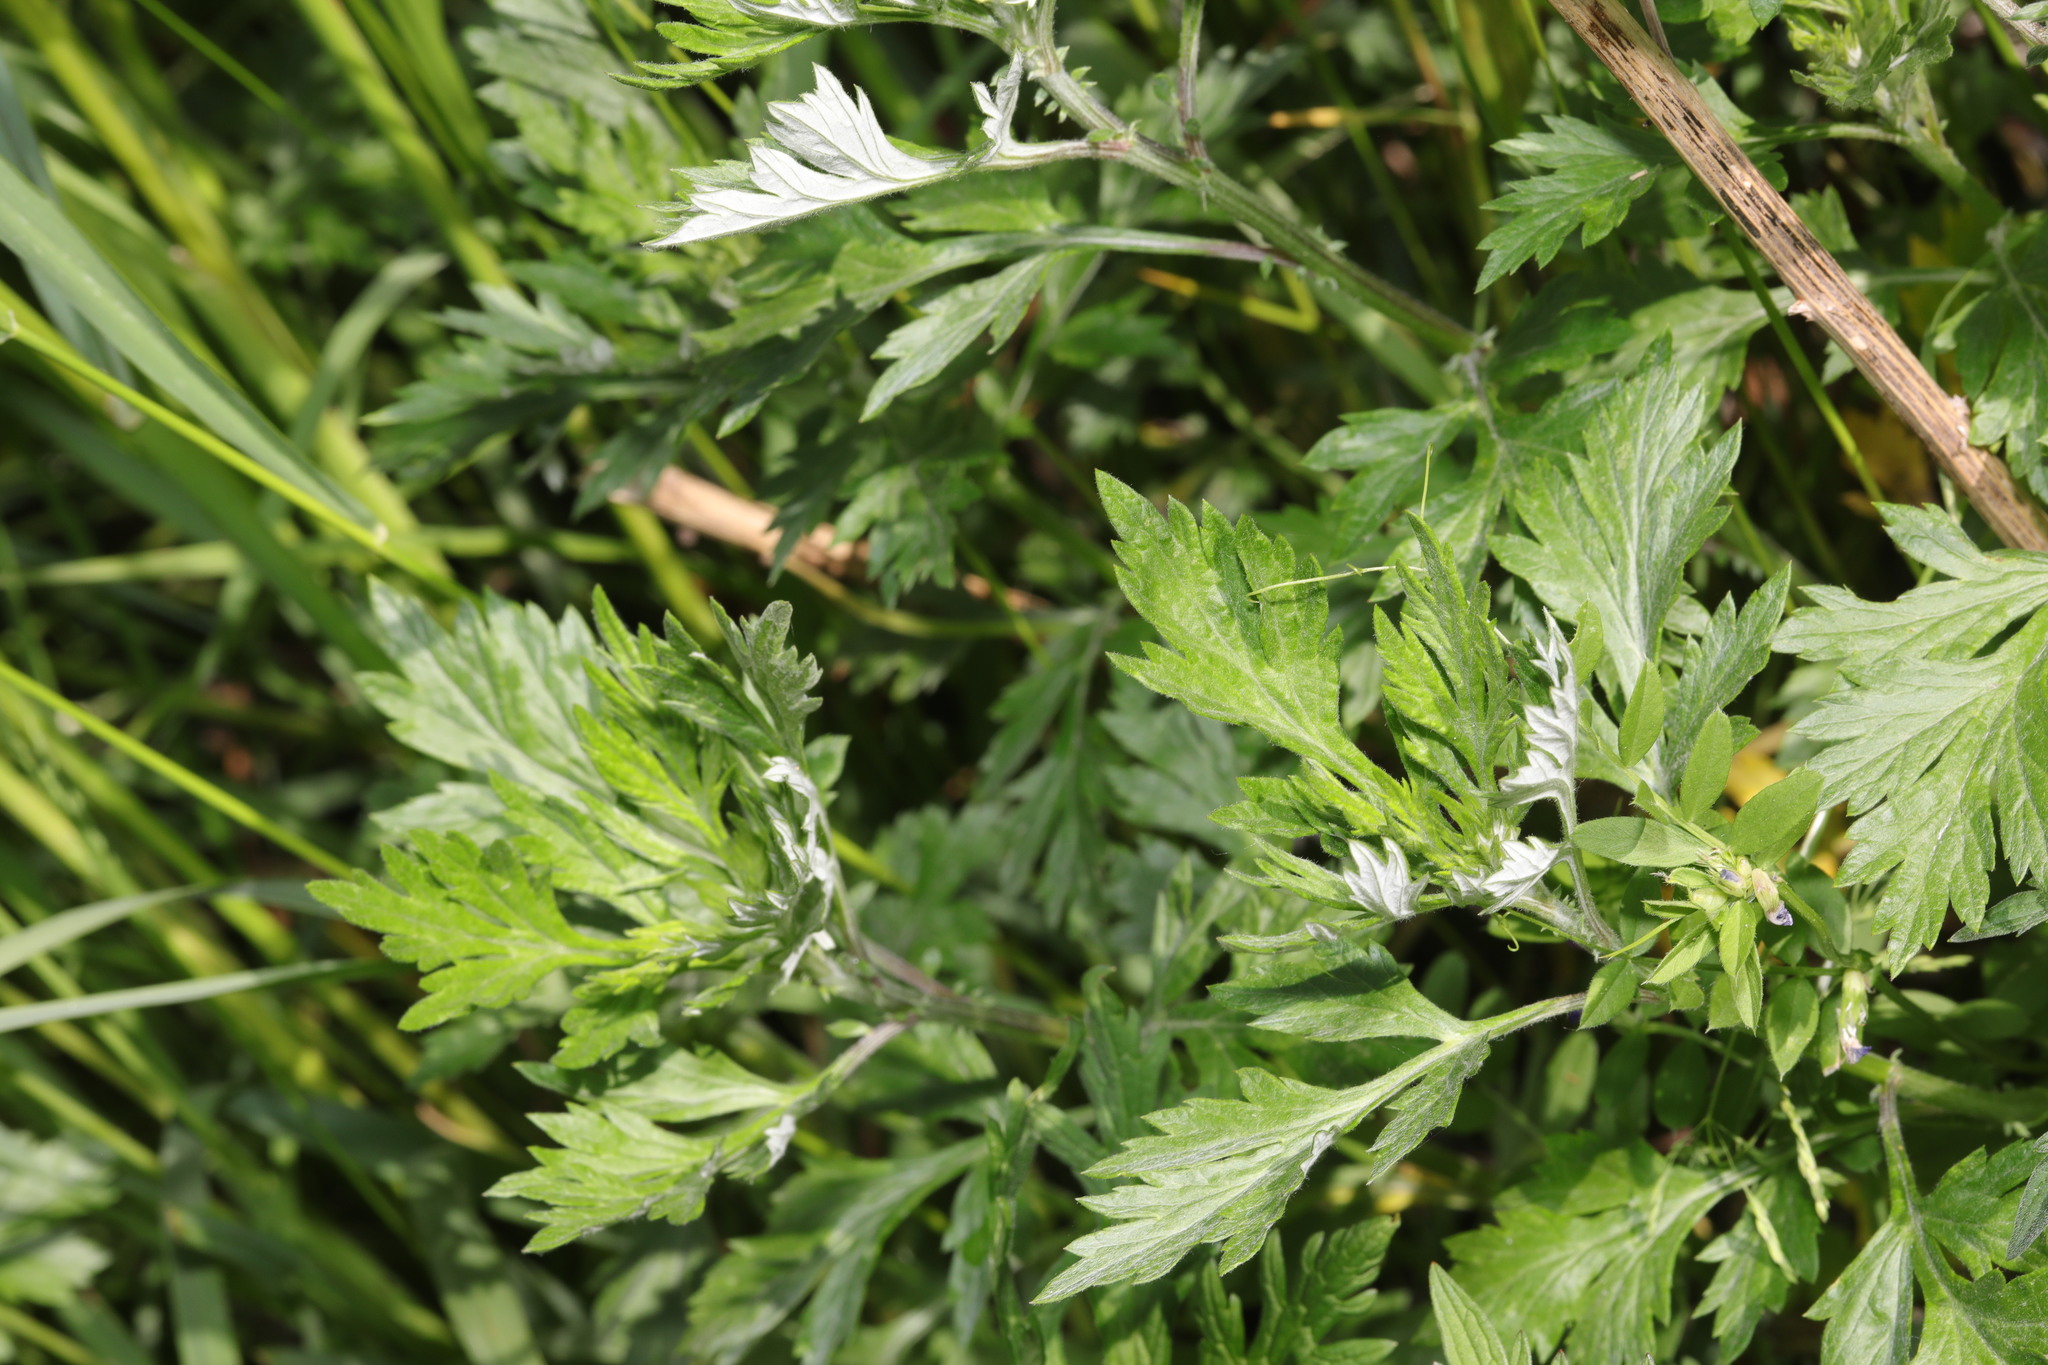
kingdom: Plantae
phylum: Tracheophyta
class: Magnoliopsida
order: Asterales
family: Asteraceae
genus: Artemisia
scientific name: Artemisia vulgaris
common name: Mugwort
